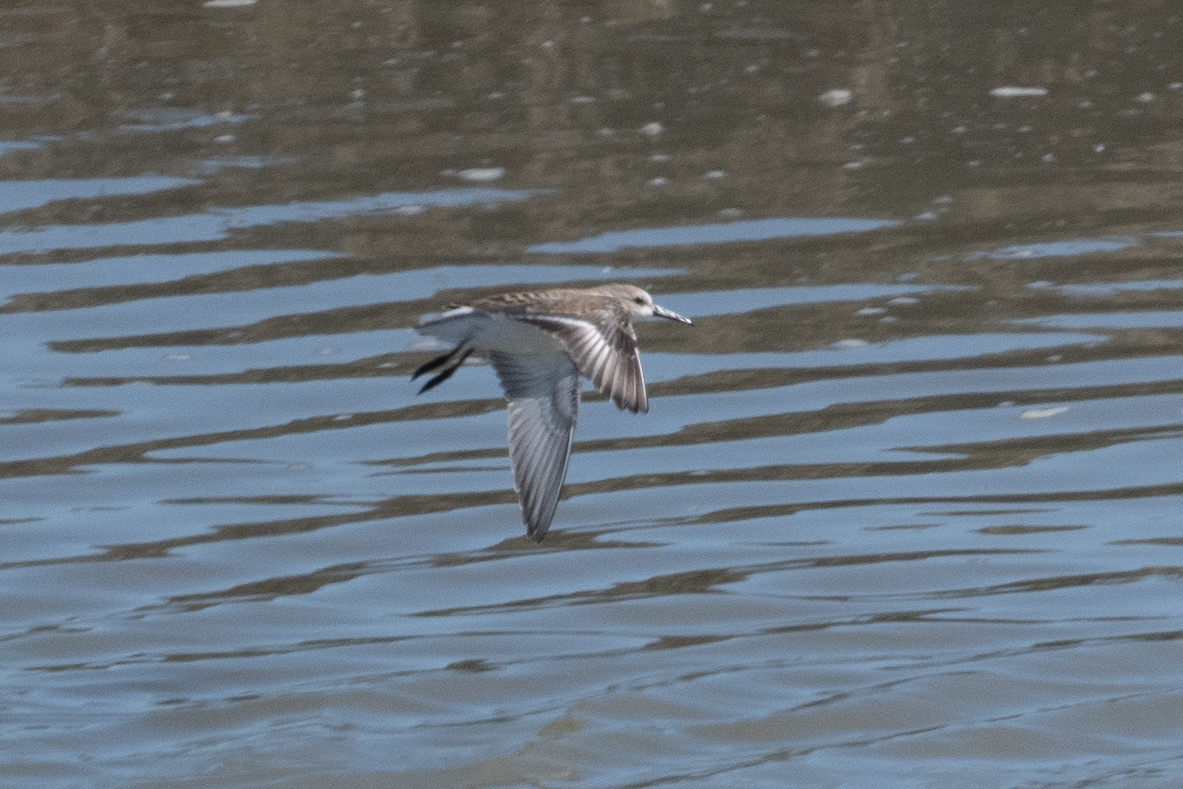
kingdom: Animalia
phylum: Chordata
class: Aves
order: Charadriiformes
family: Scolopacidae
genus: Calidris
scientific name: Calidris mauri
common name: Western sandpiper
